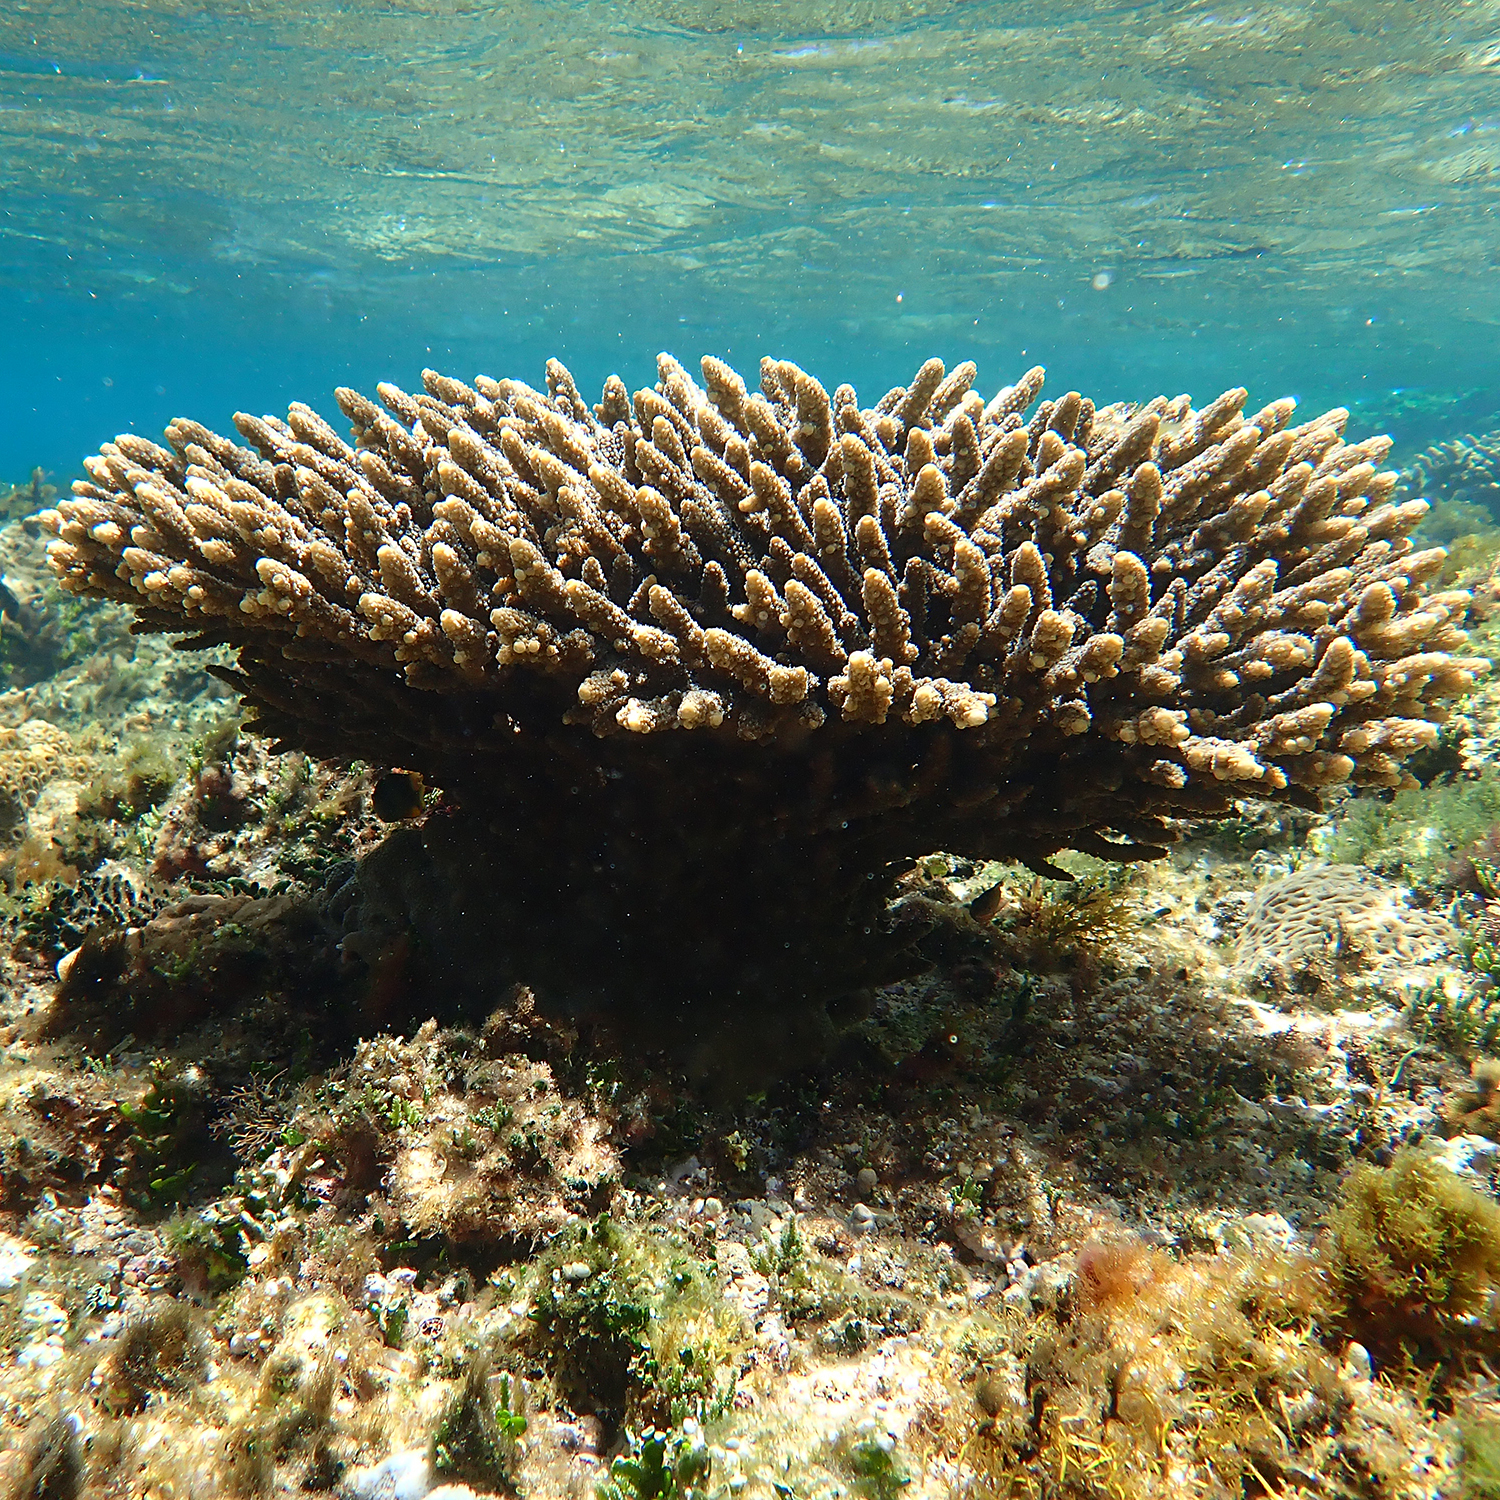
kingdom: Animalia
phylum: Cnidaria
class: Anthozoa
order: Scleractinia
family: Acroporidae
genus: Acropora
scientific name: Acropora solitaryensis
